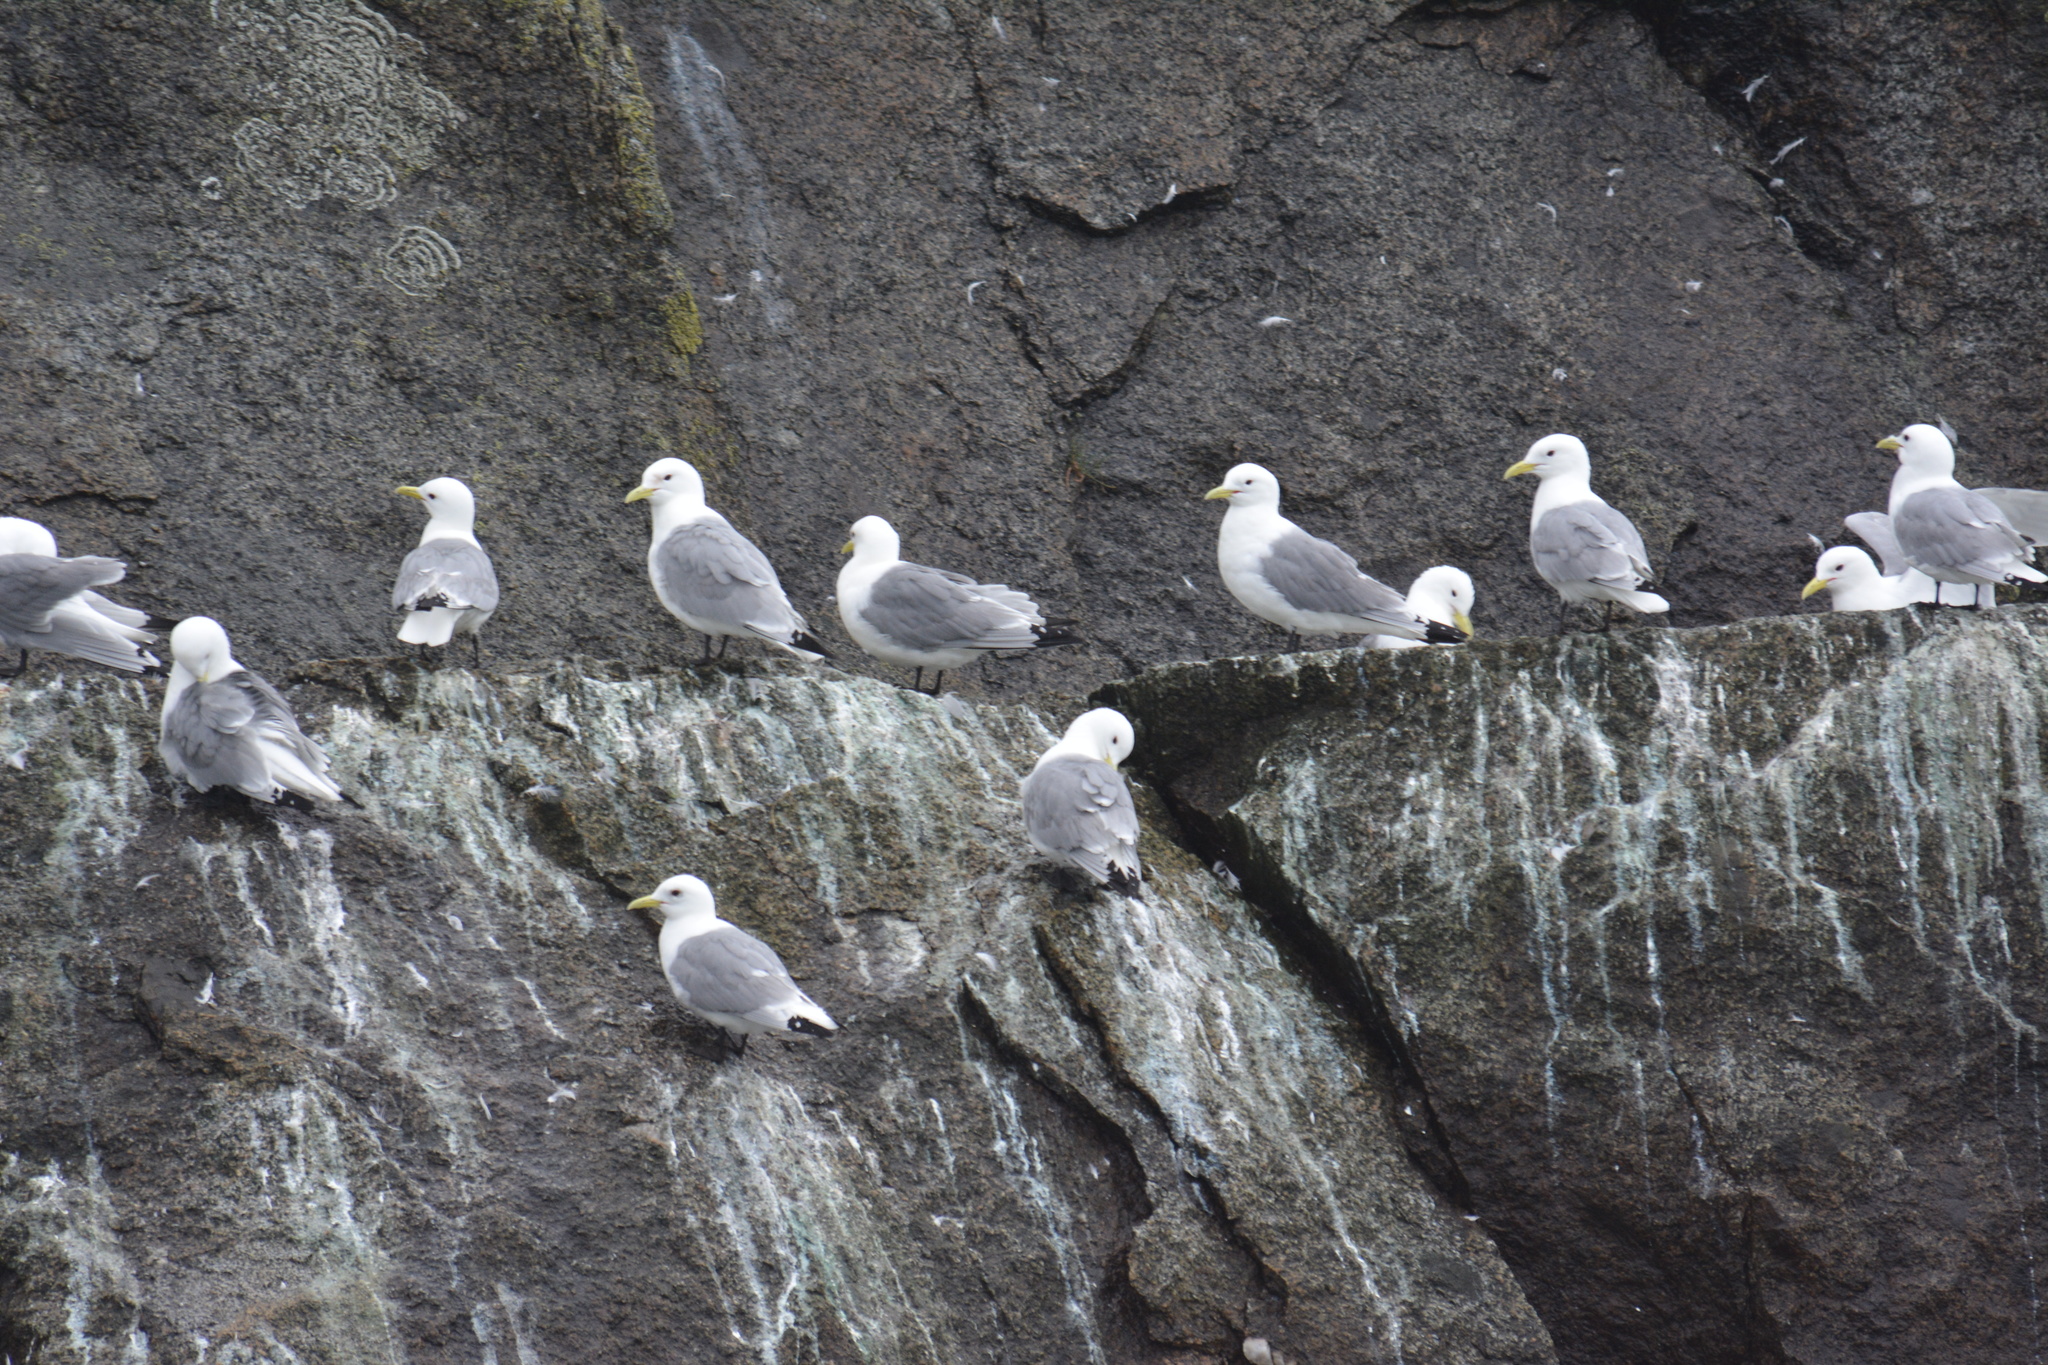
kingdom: Animalia
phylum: Chordata
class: Aves
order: Charadriiformes
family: Laridae
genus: Rissa
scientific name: Rissa tridactyla
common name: Black-legged kittiwake
